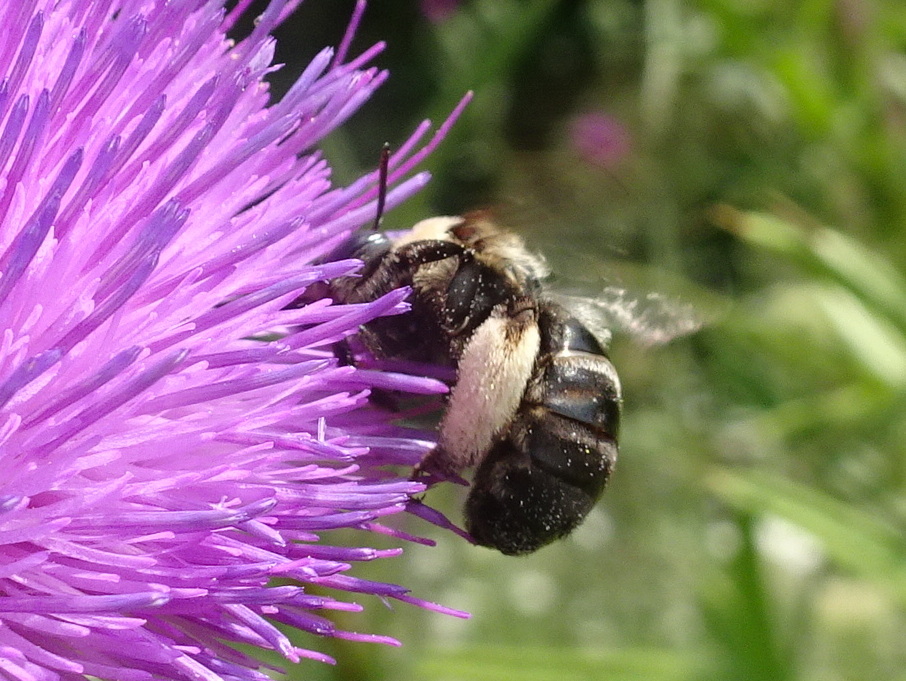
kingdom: Animalia
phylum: Arthropoda
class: Insecta
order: Hymenoptera
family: Apidae
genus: Melissodes
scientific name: Melissodes desponsus
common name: Thistle long-horned bee
